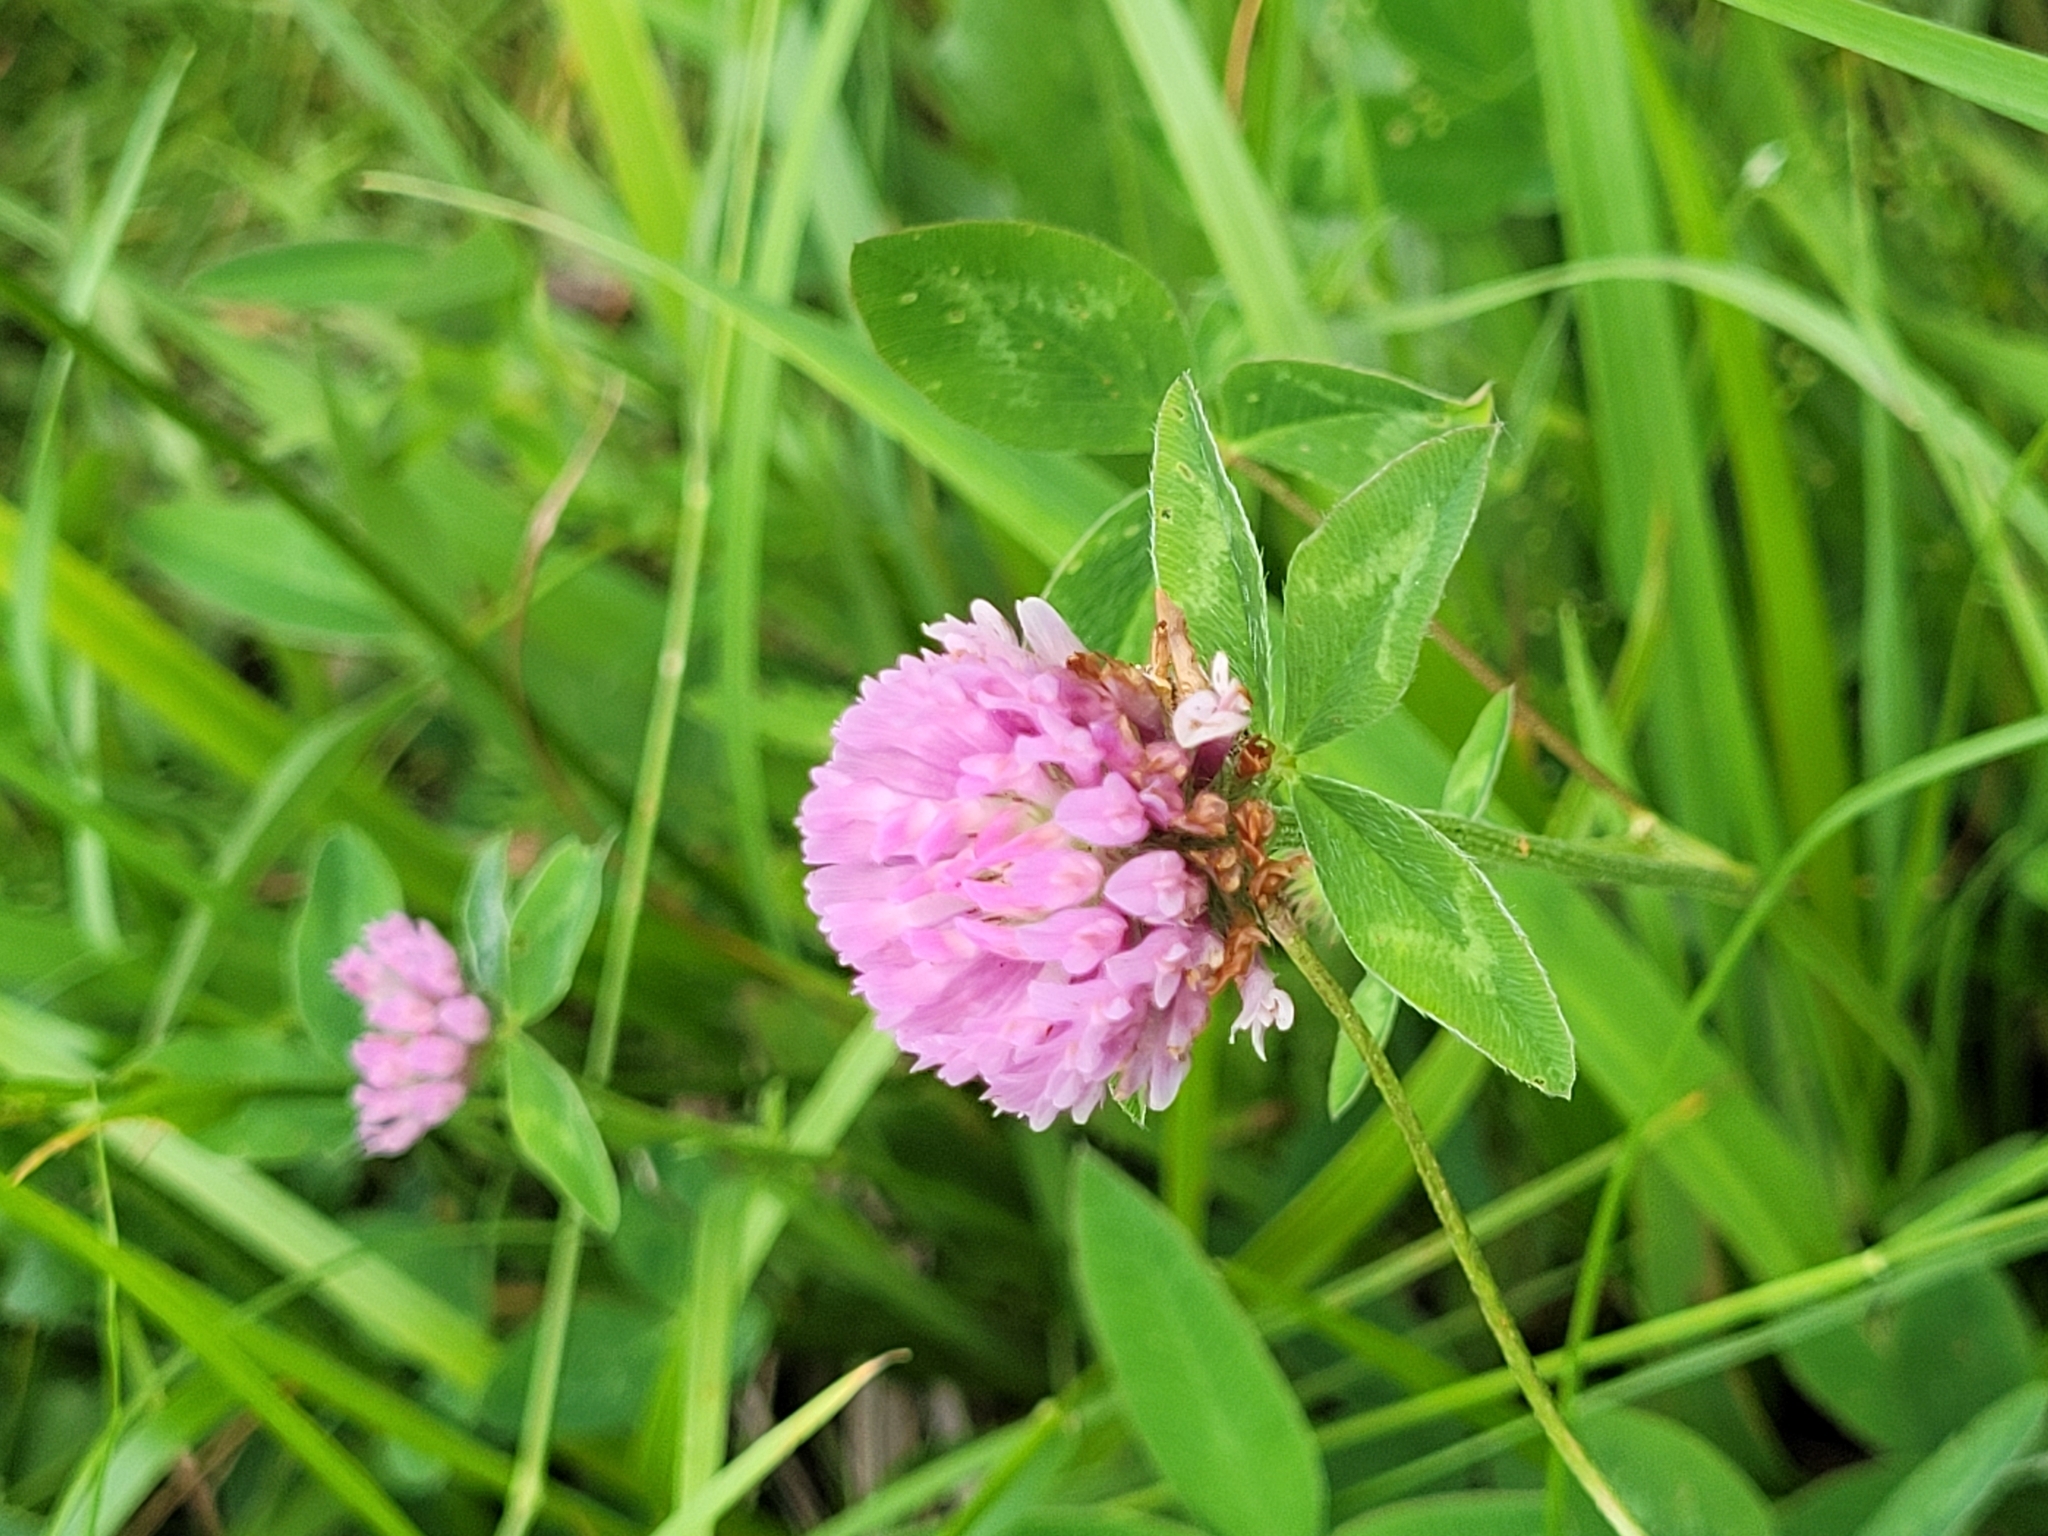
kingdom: Plantae
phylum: Tracheophyta
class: Magnoliopsida
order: Fabales
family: Fabaceae
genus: Trifolium
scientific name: Trifolium pratense
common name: Red clover
